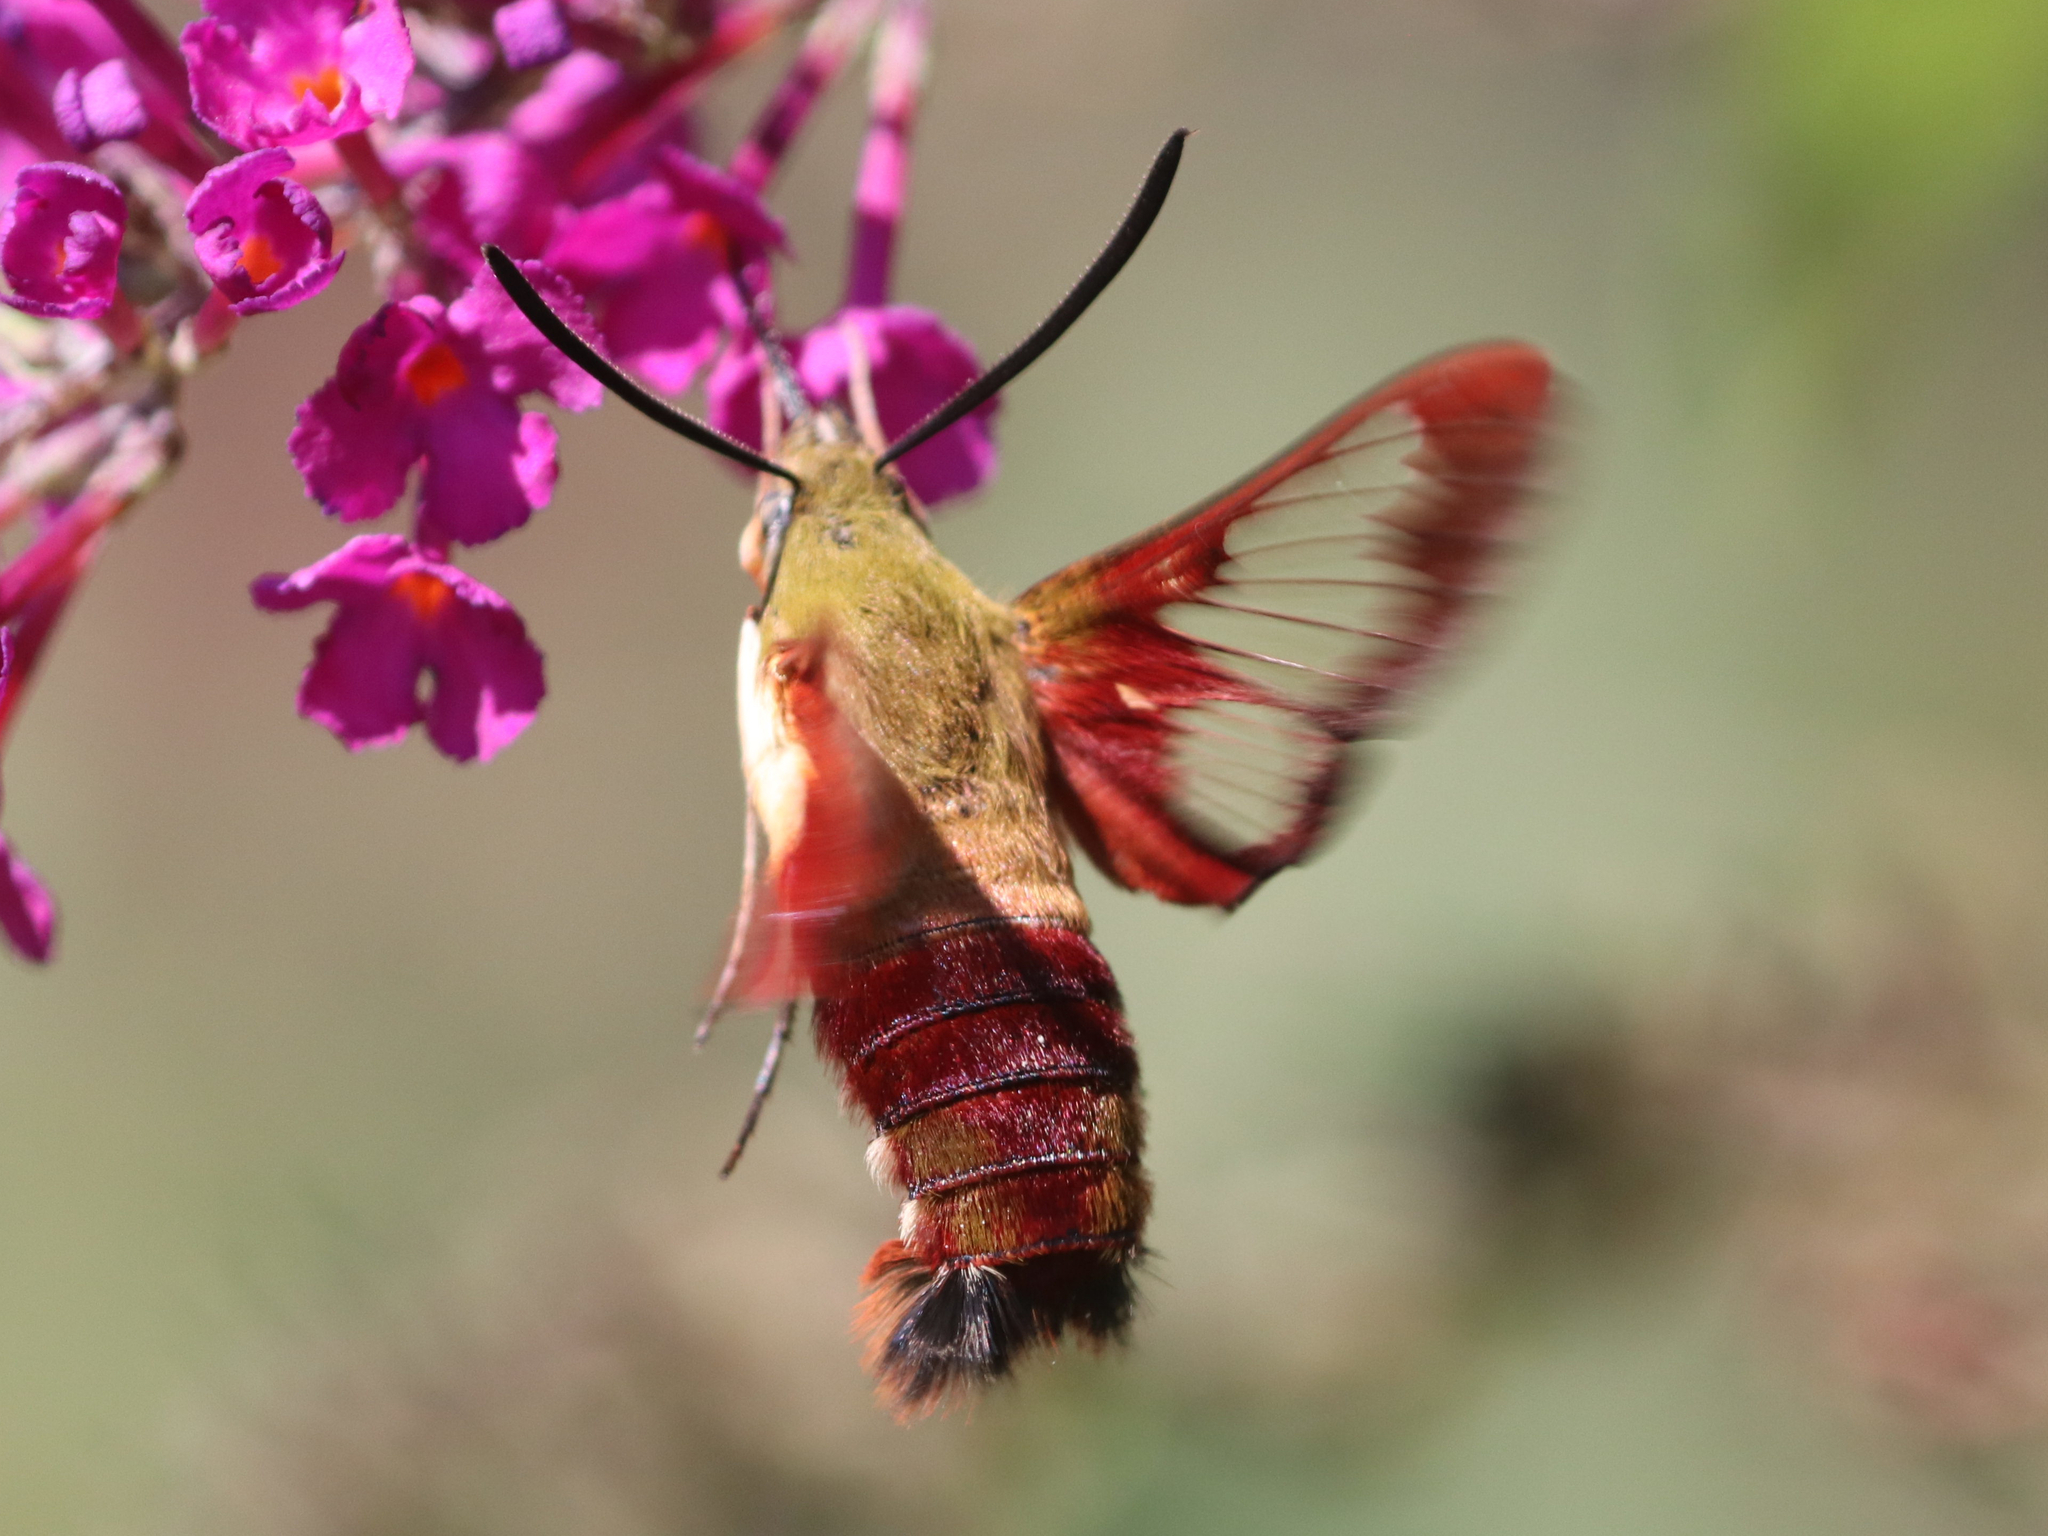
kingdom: Animalia
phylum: Arthropoda
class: Insecta
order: Lepidoptera
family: Sphingidae
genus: Hemaris
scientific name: Hemaris thysbe
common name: Common clear-wing
